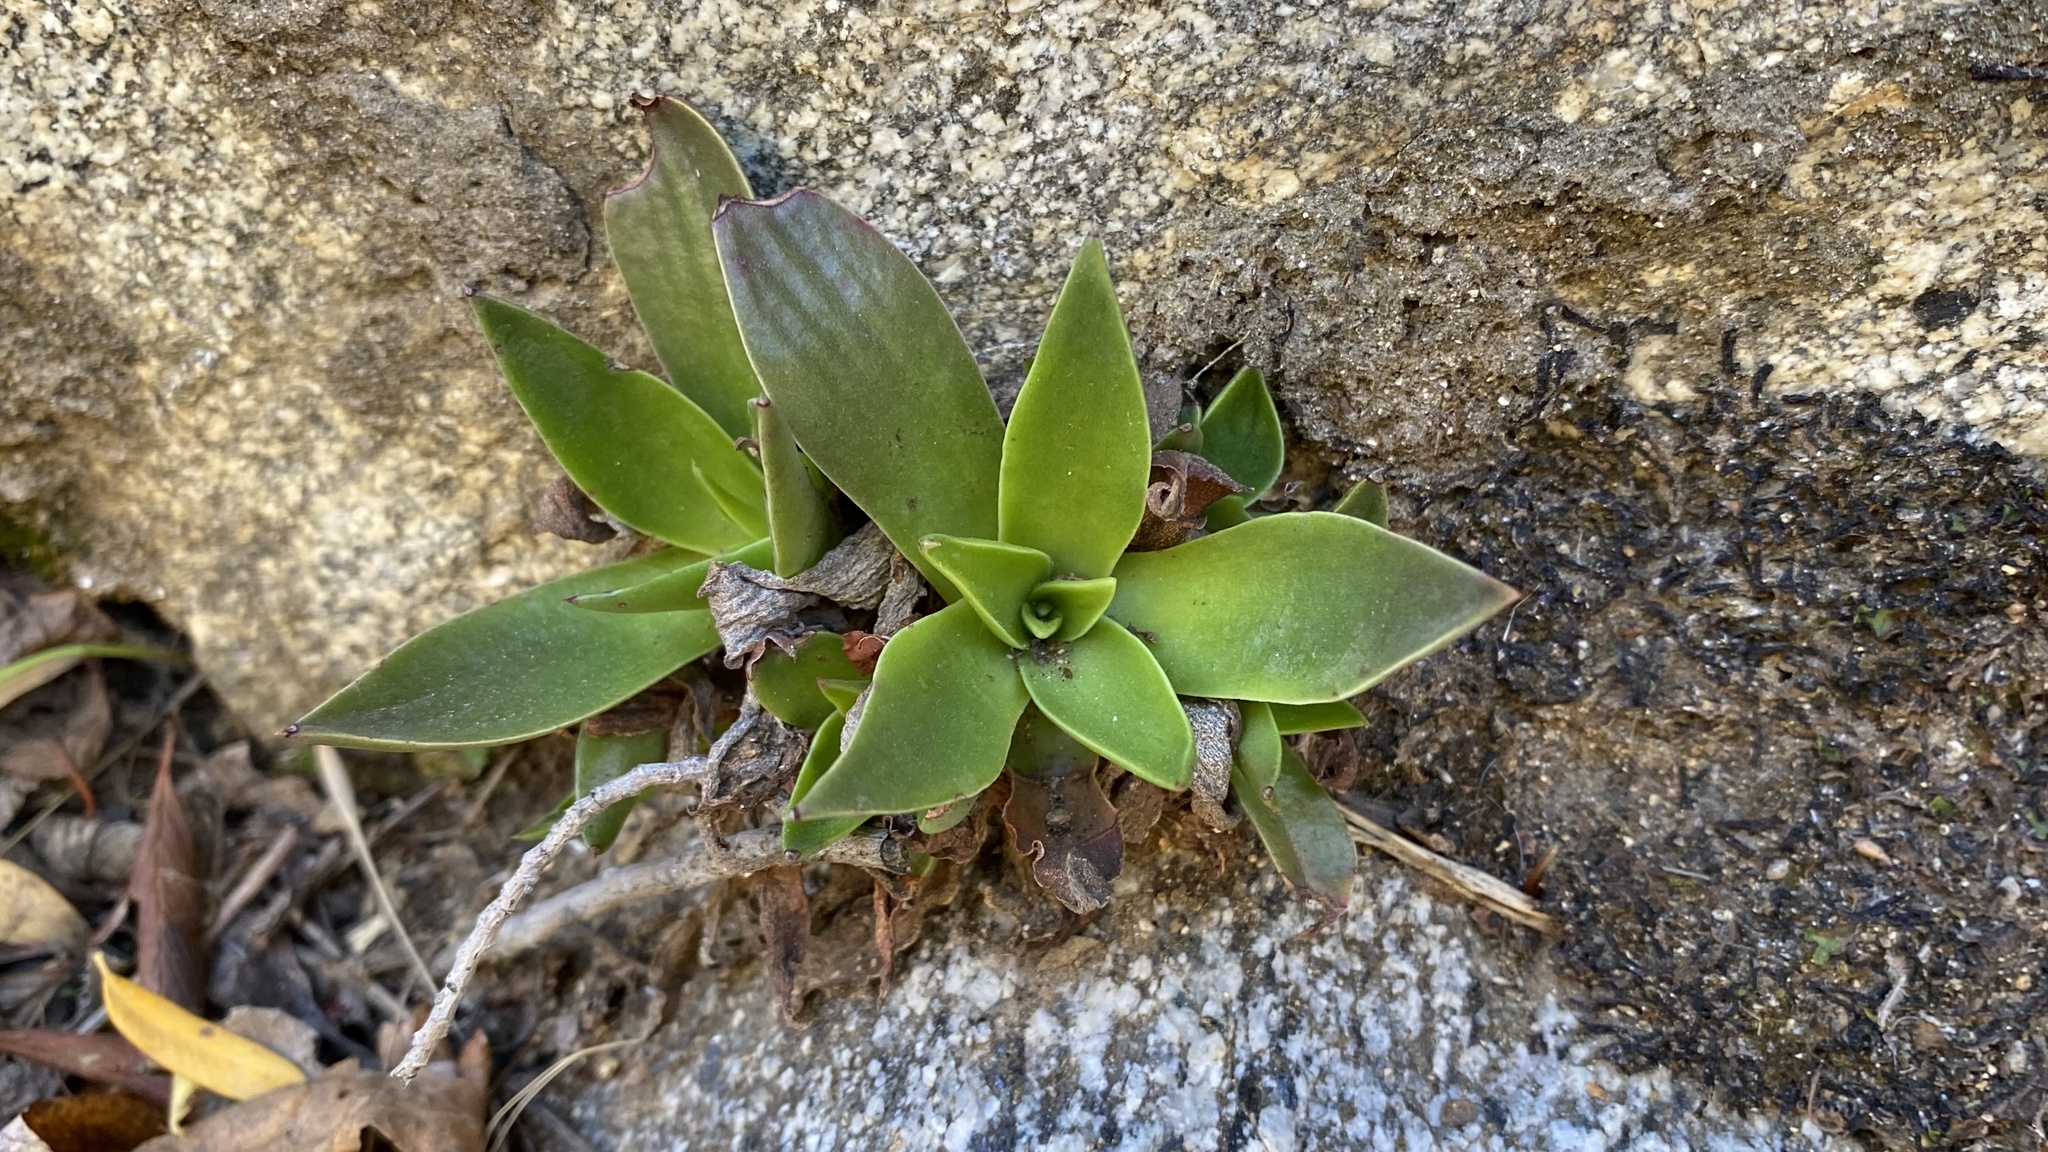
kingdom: Plantae
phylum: Tracheophyta
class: Magnoliopsida
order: Saxifragales
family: Crassulaceae
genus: Dudleya
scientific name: Dudleya lanceolata
